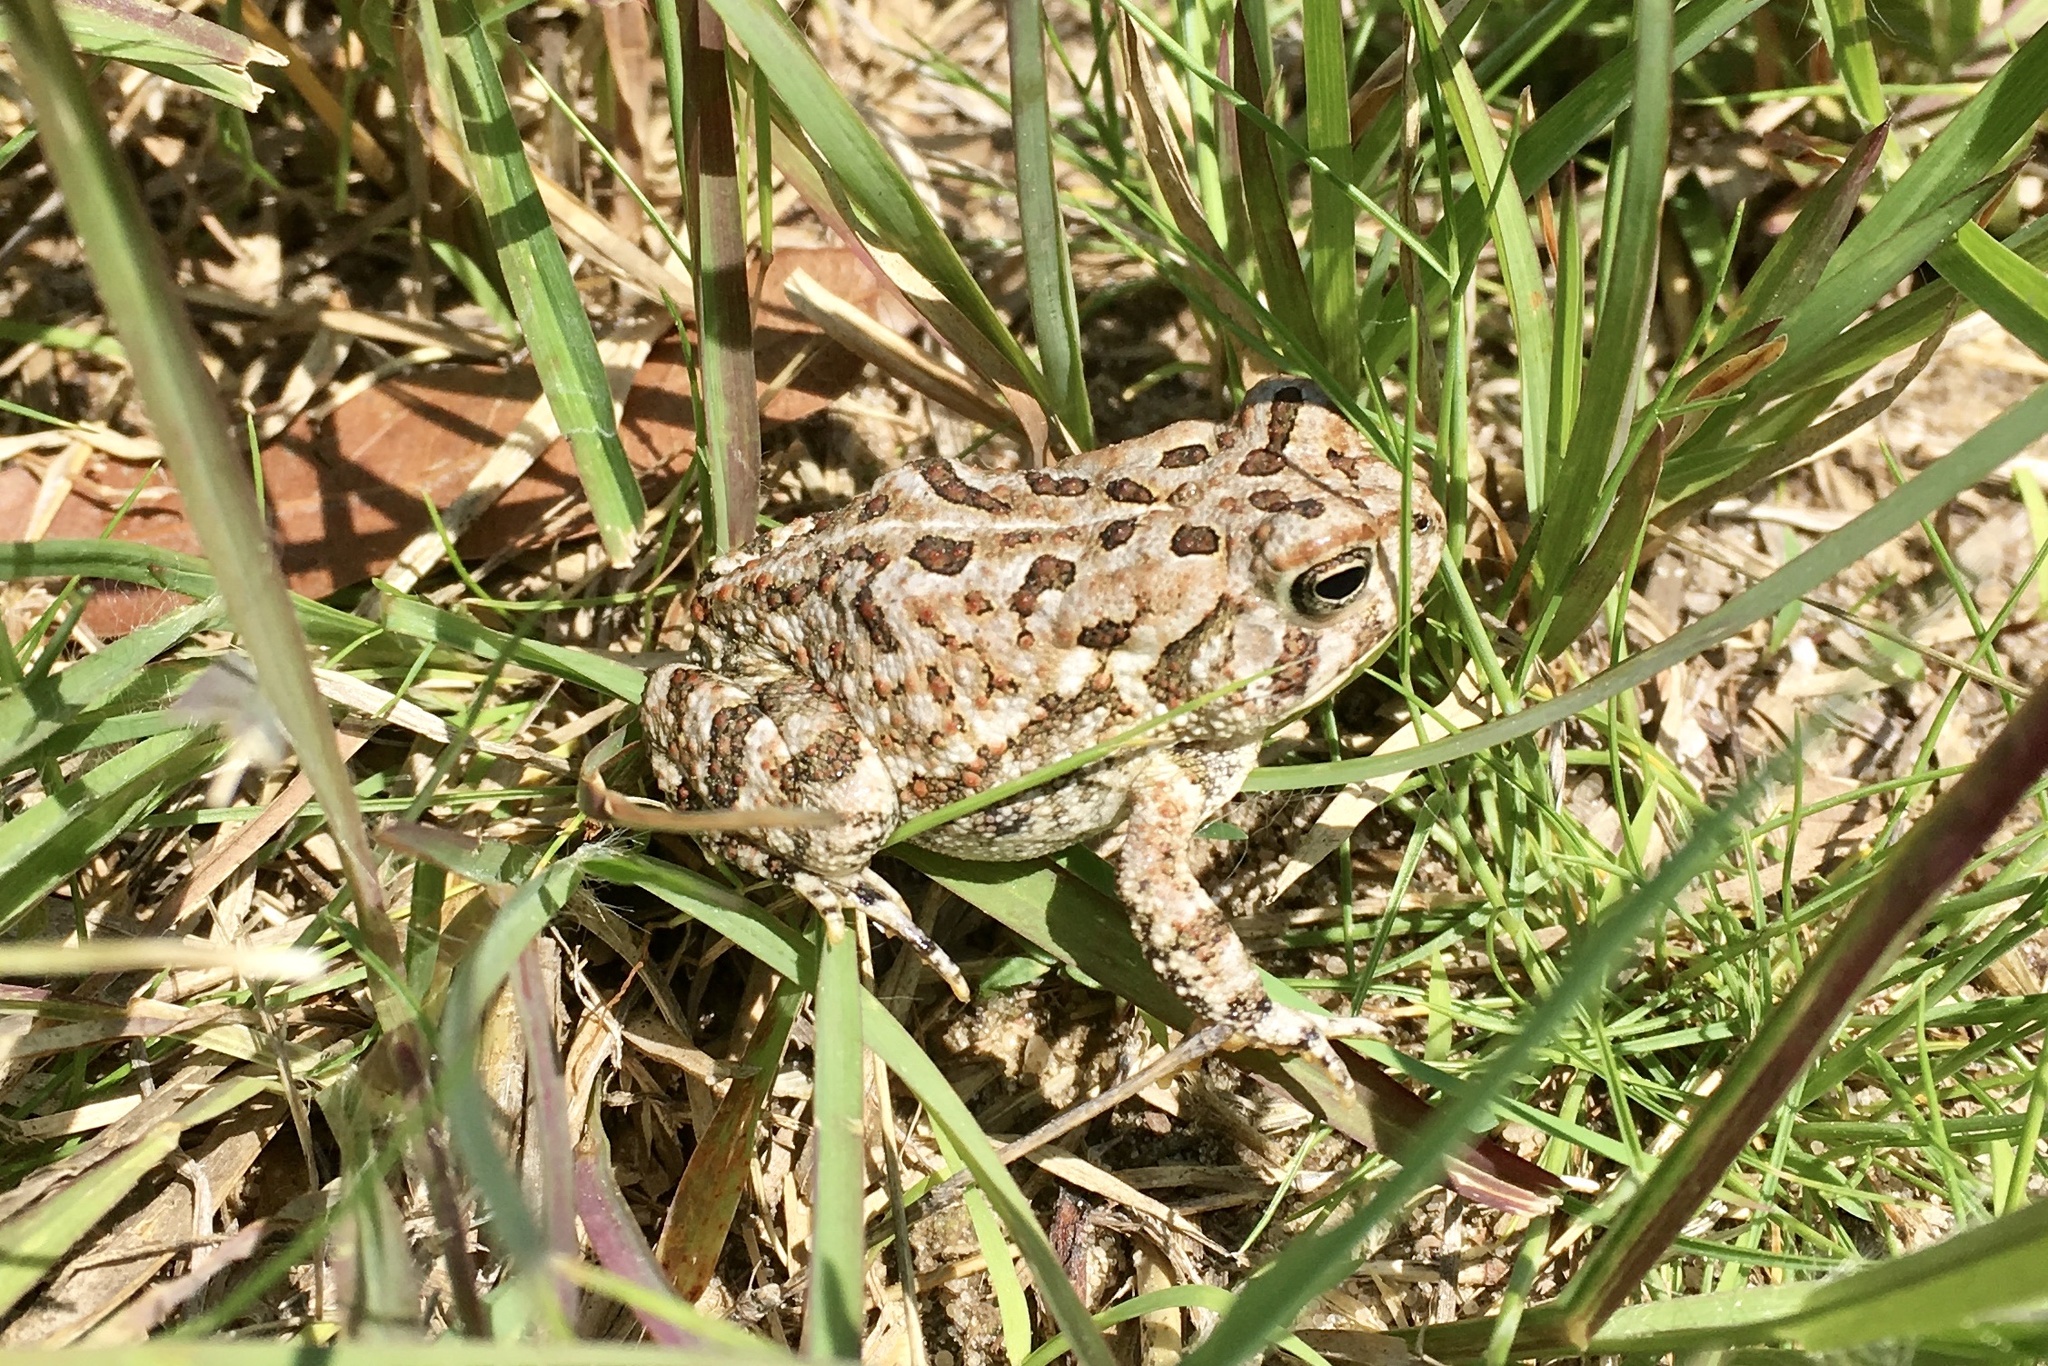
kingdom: Animalia
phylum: Chordata
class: Amphibia
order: Anura
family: Bufonidae
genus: Anaxyrus
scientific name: Anaxyrus fowleri
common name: Fowler's toad
